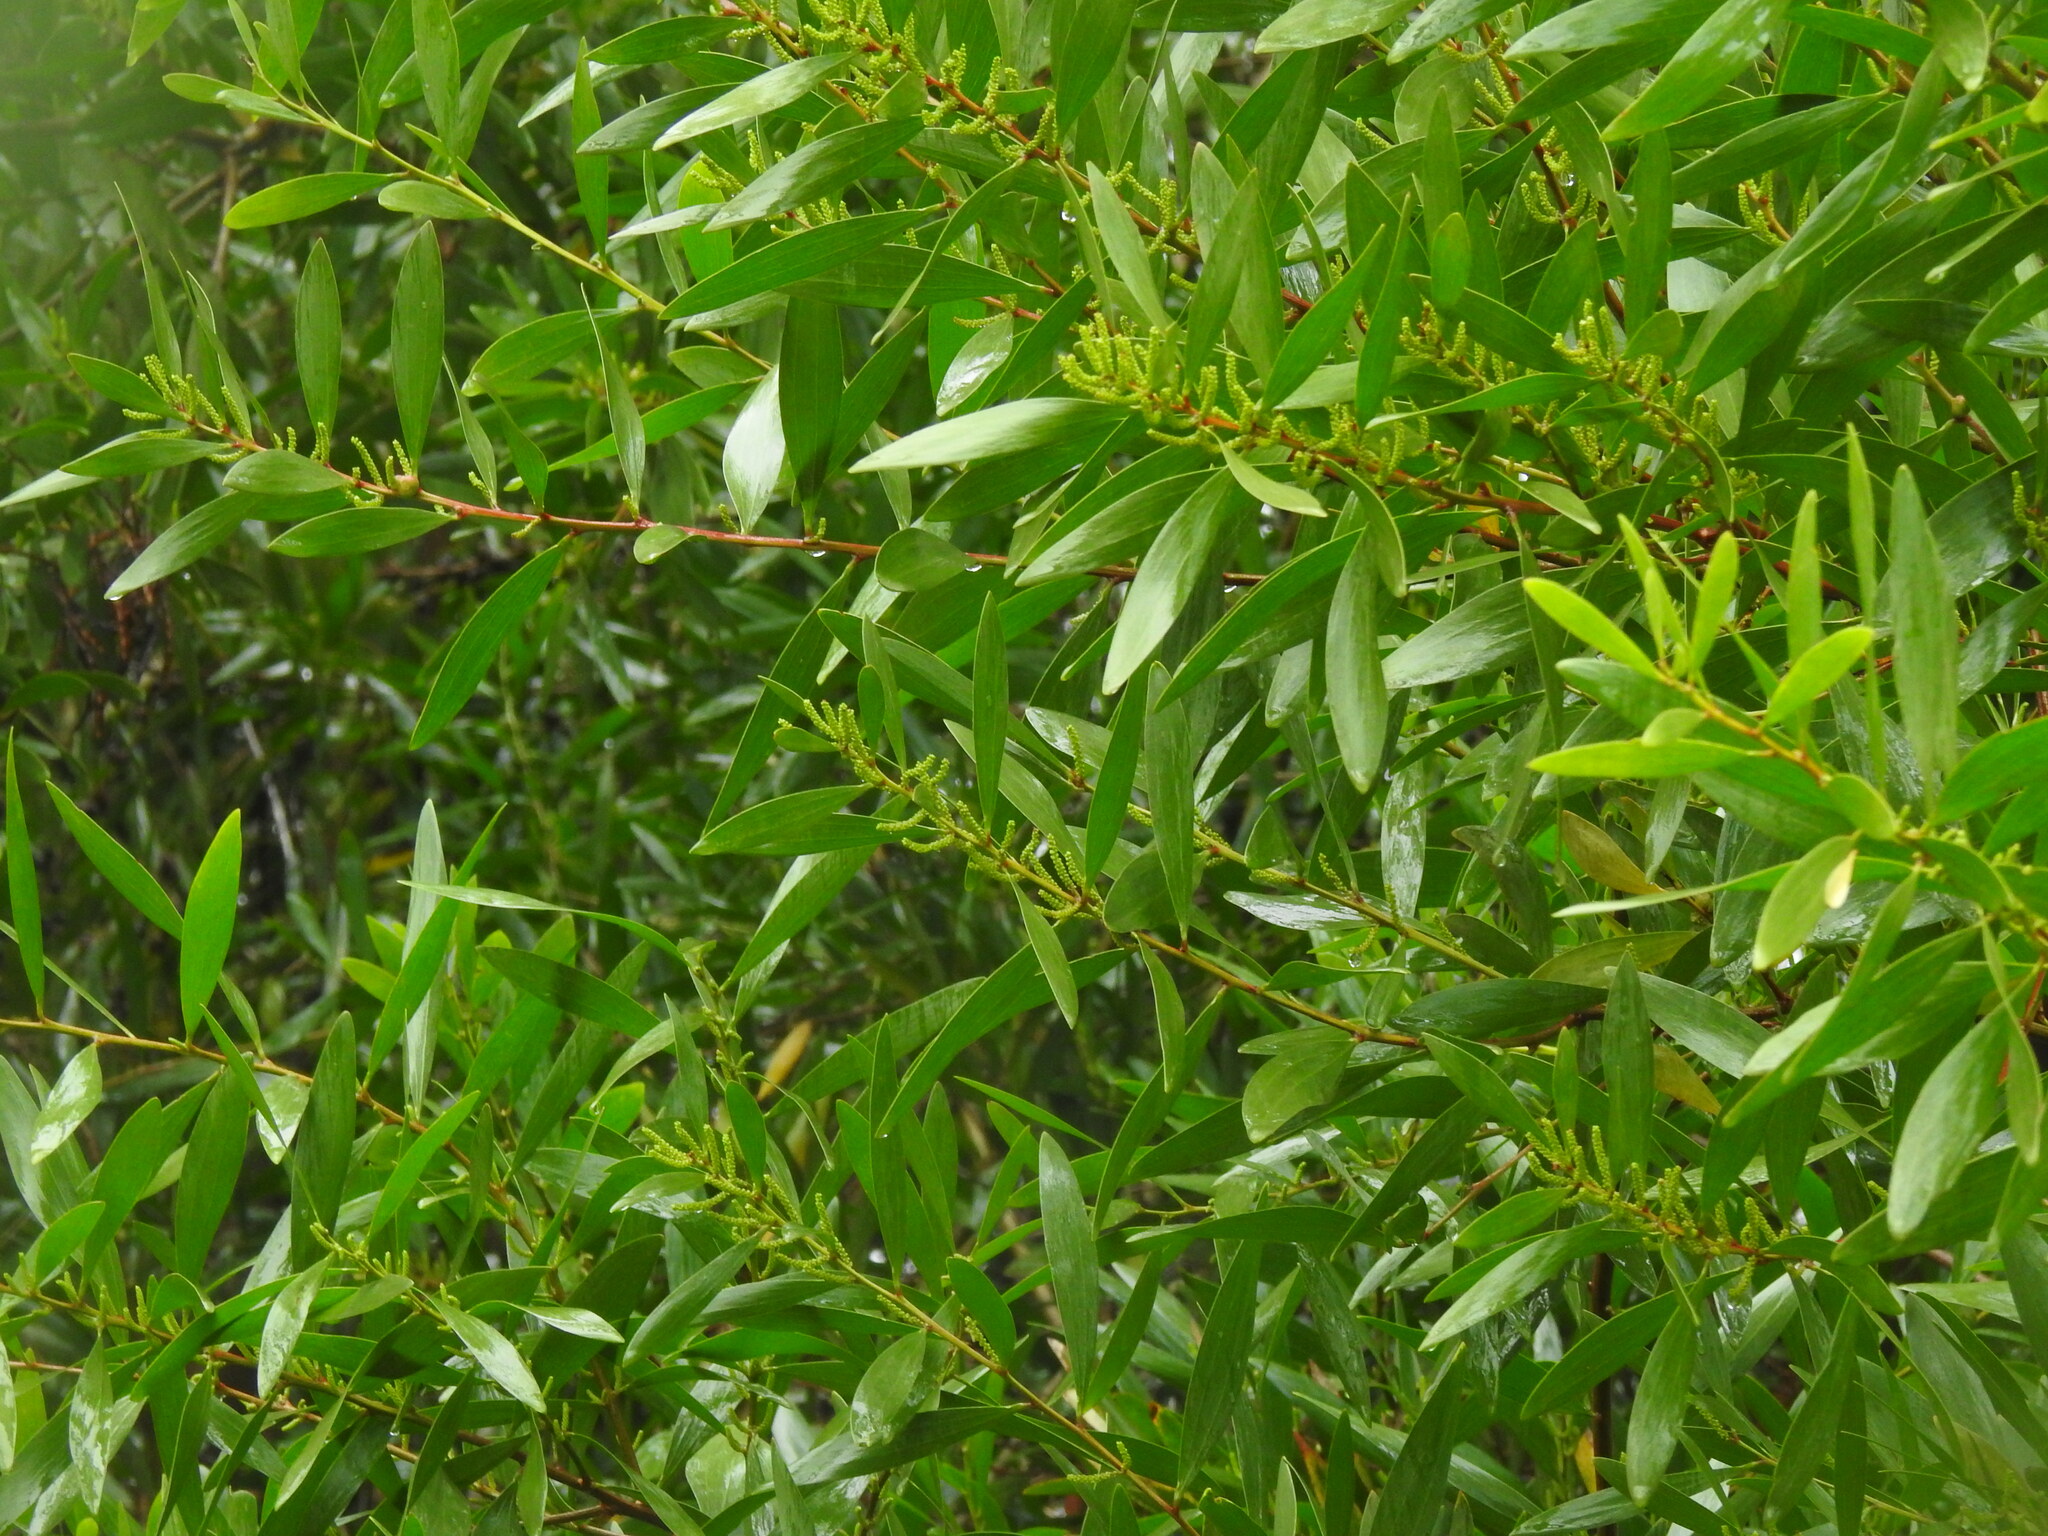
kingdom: Plantae
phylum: Tracheophyta
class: Magnoliopsida
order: Fabales
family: Fabaceae
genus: Acacia
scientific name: Acacia longifolia
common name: Sydney golden wattle
